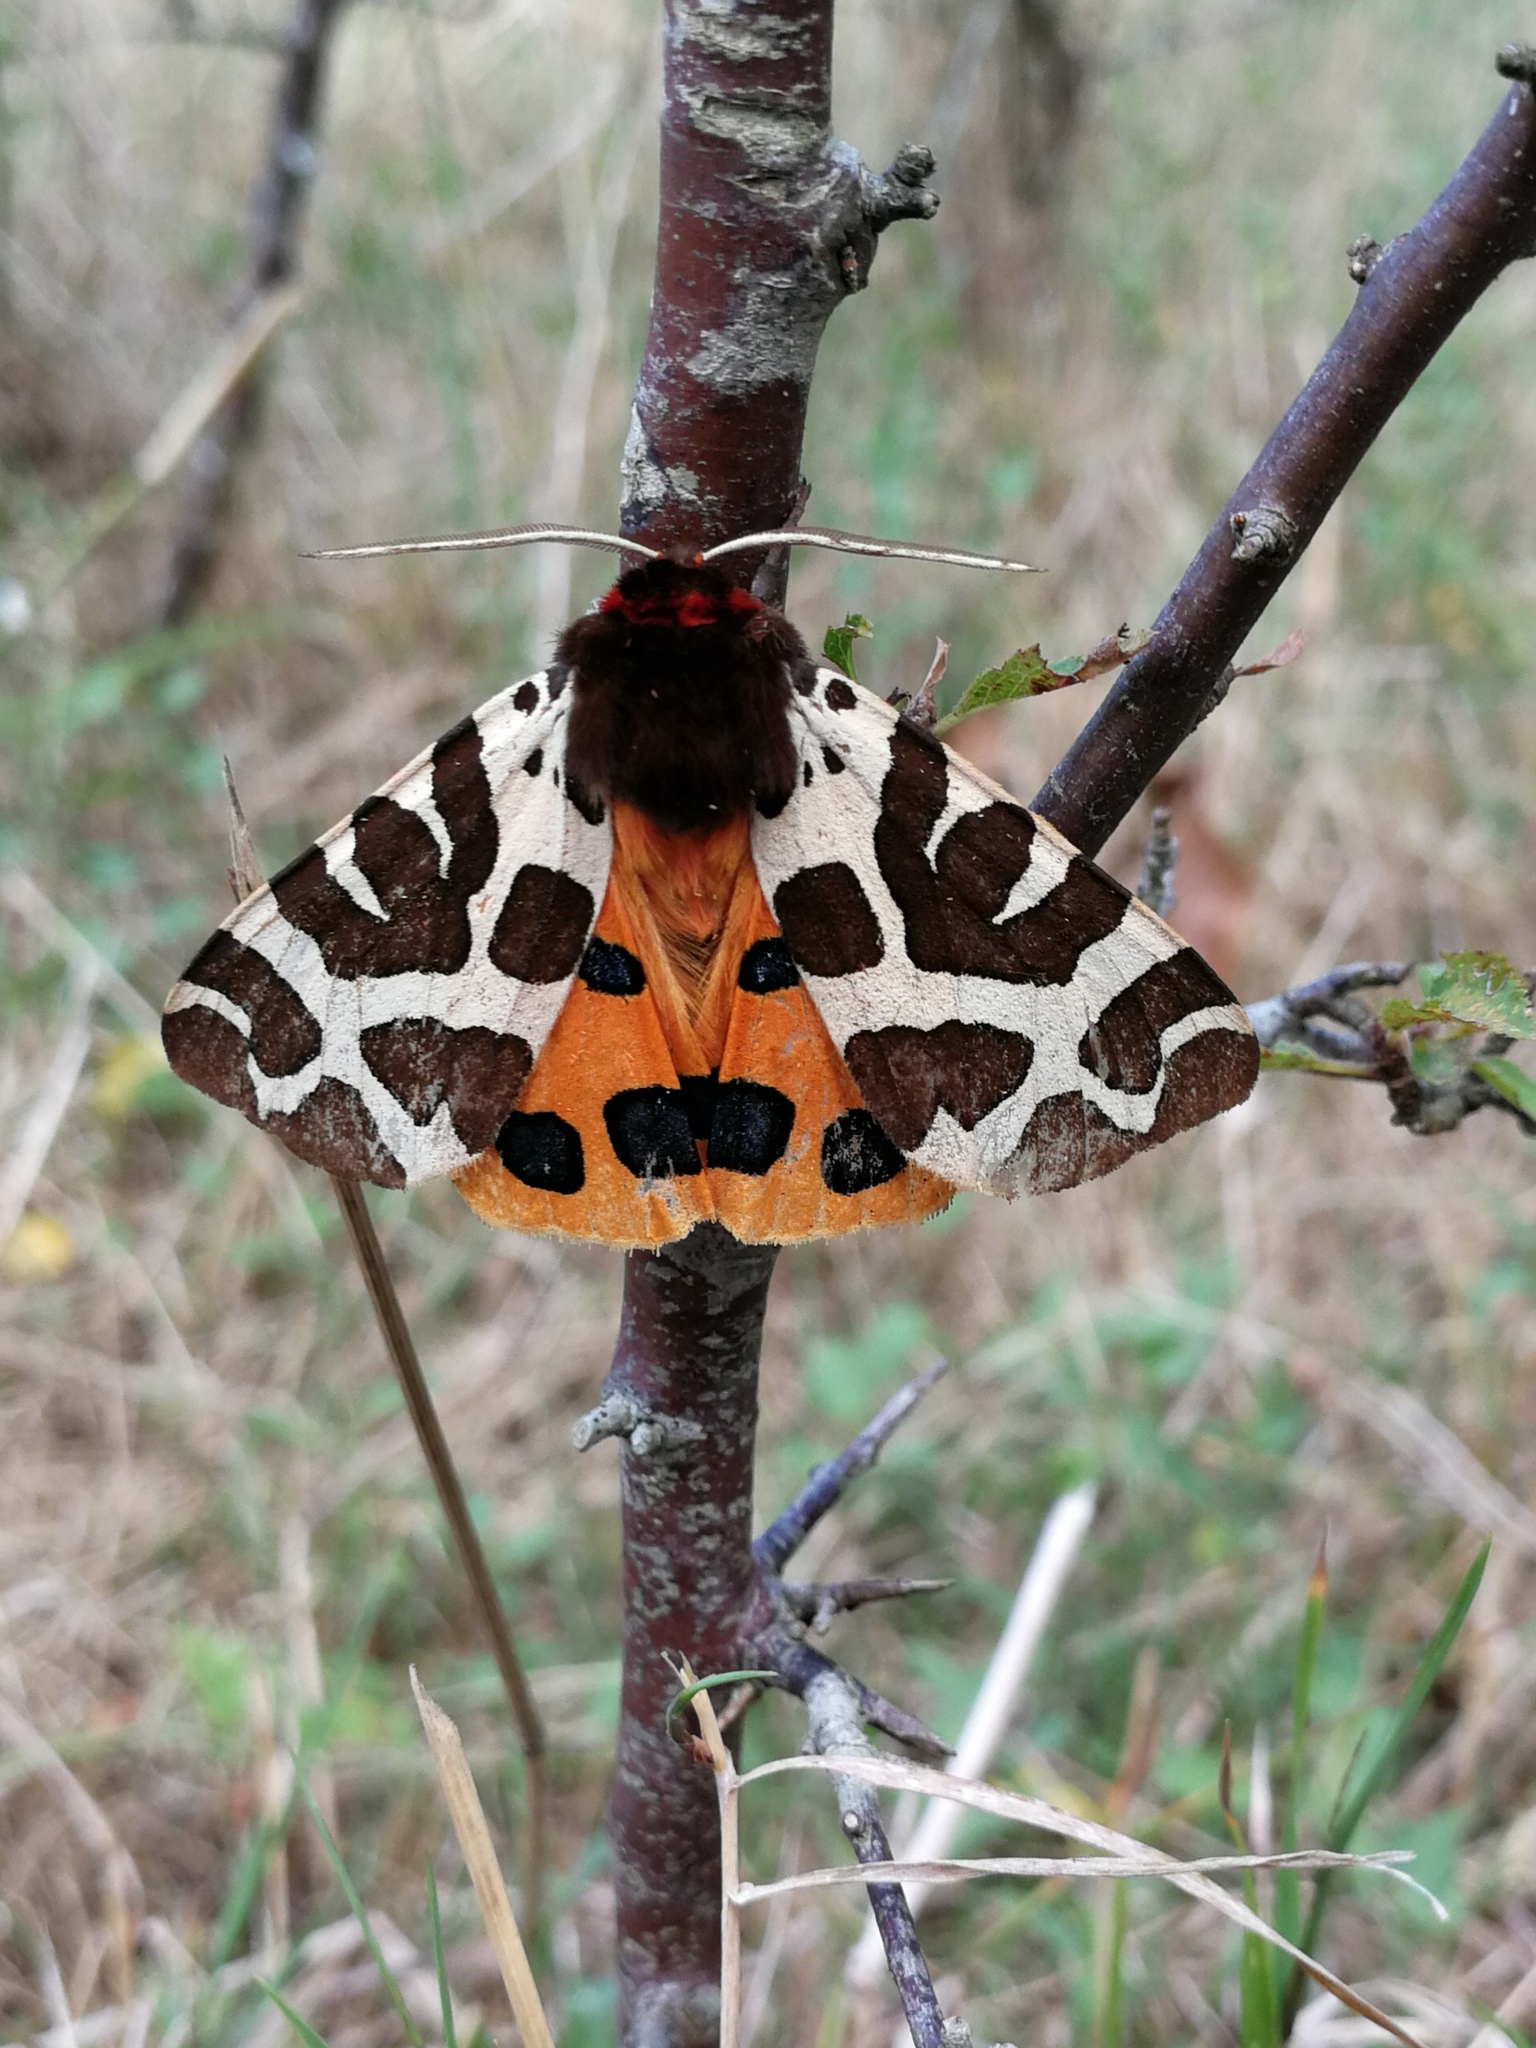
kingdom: Animalia
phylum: Arthropoda
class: Insecta
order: Lepidoptera
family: Erebidae
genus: Arctia
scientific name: Arctia caja
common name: Garden tiger
